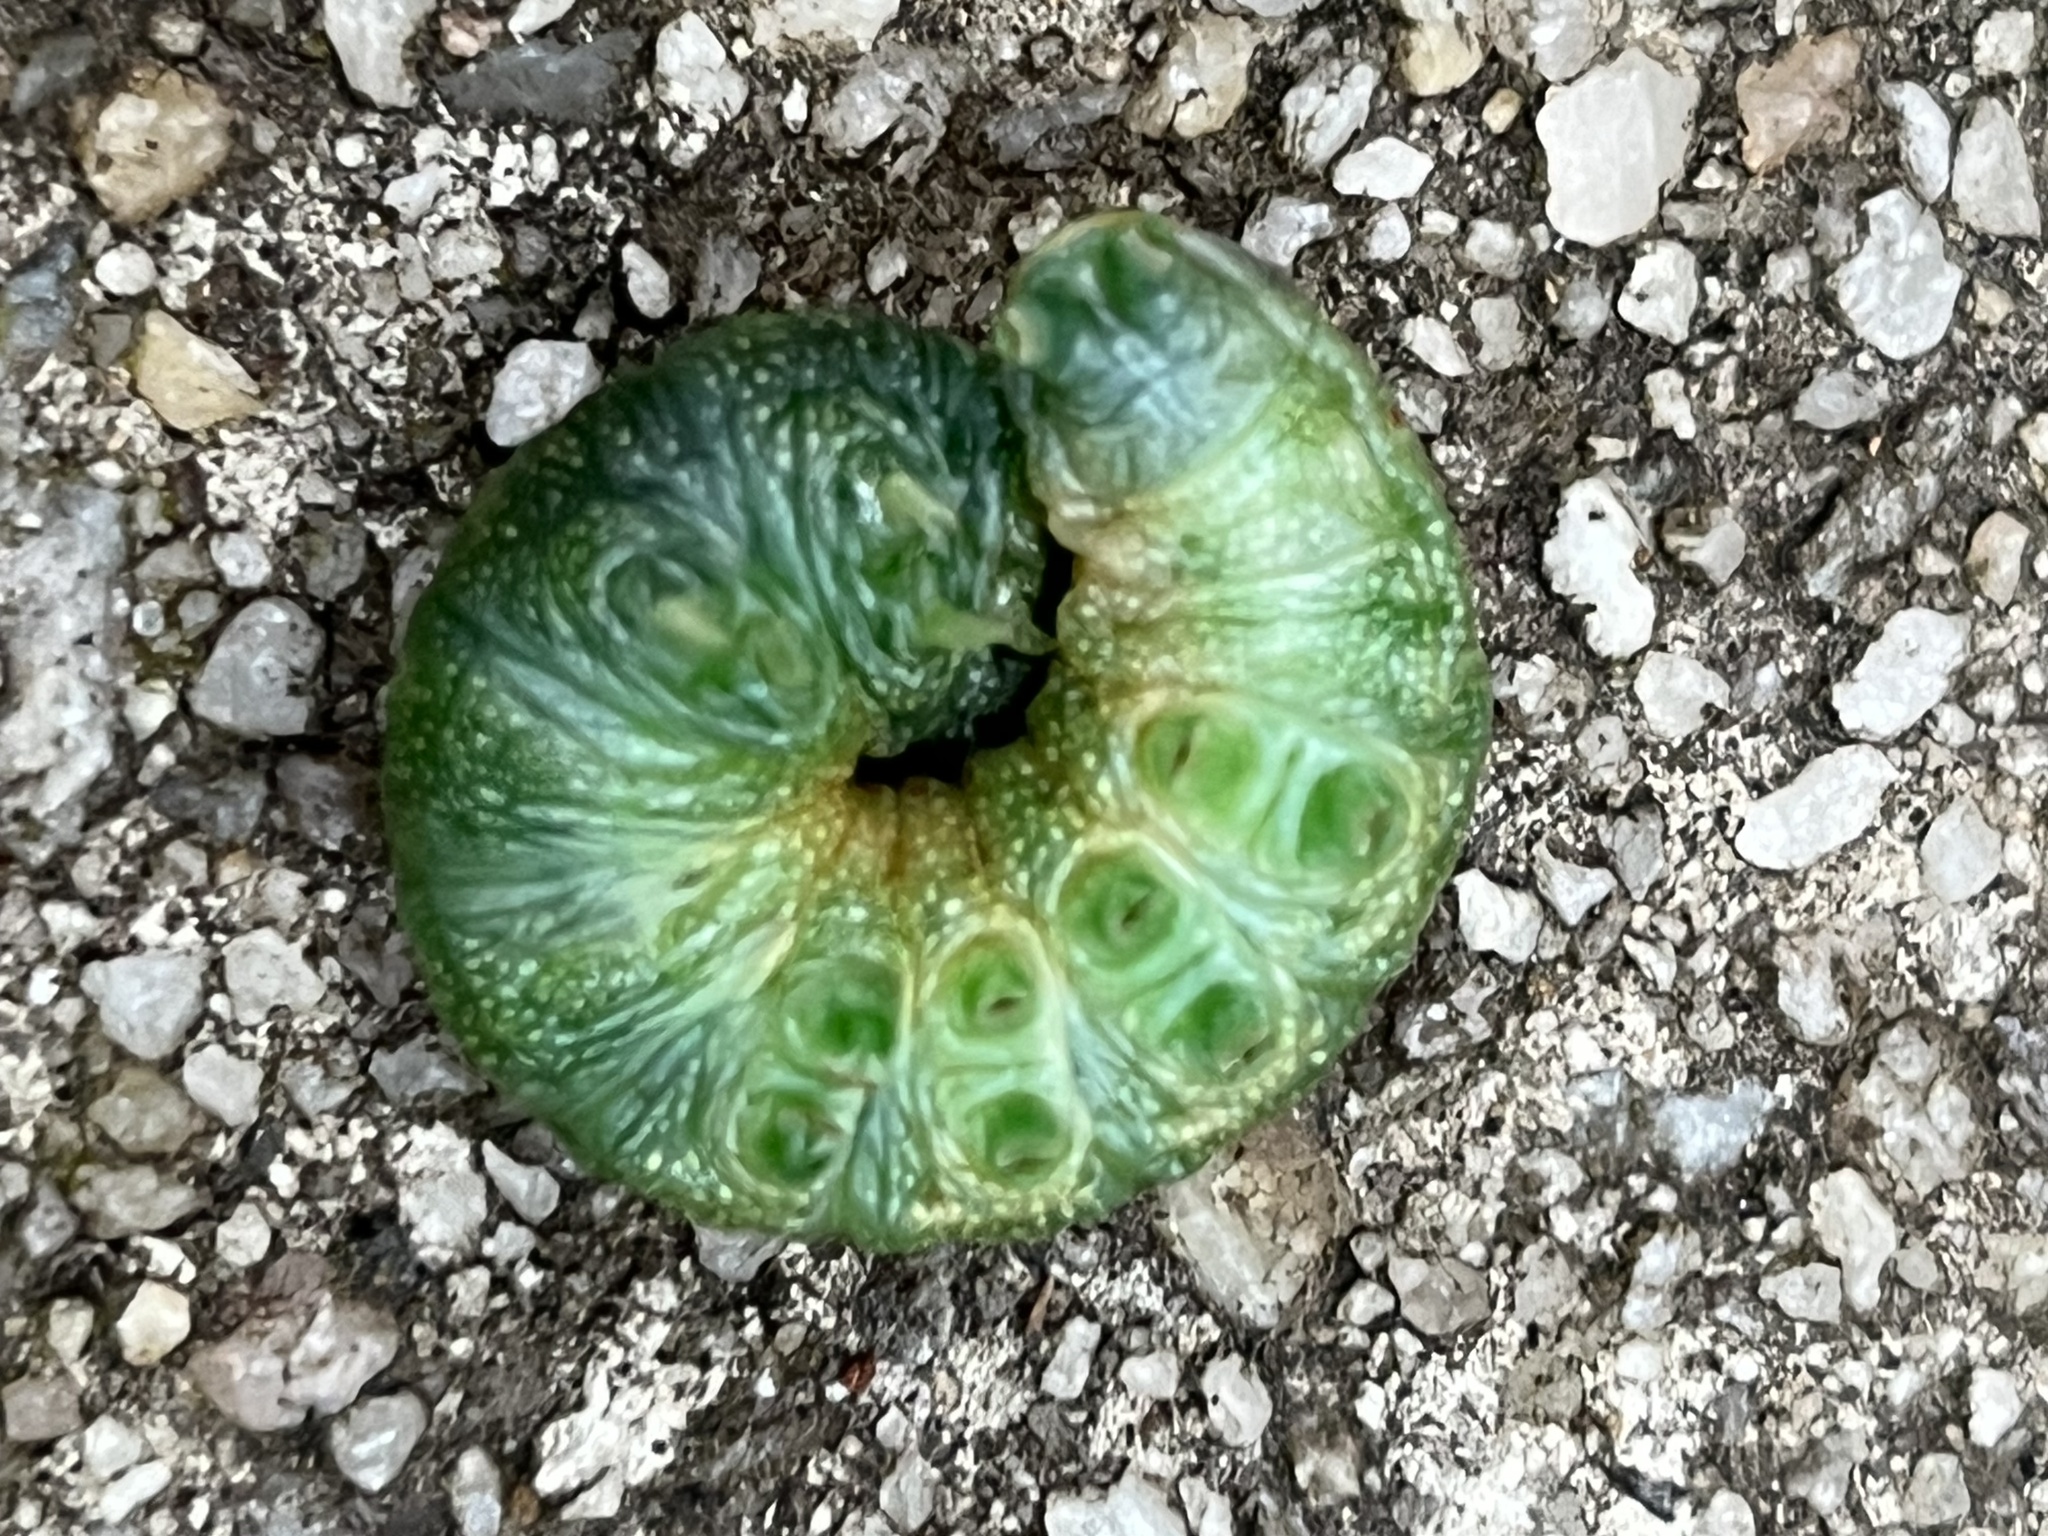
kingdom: Animalia
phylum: Arthropoda
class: Insecta
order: Lepidoptera
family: Notodontidae
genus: Nadata
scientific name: Nadata gibbosa
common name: White-dotted prominent
